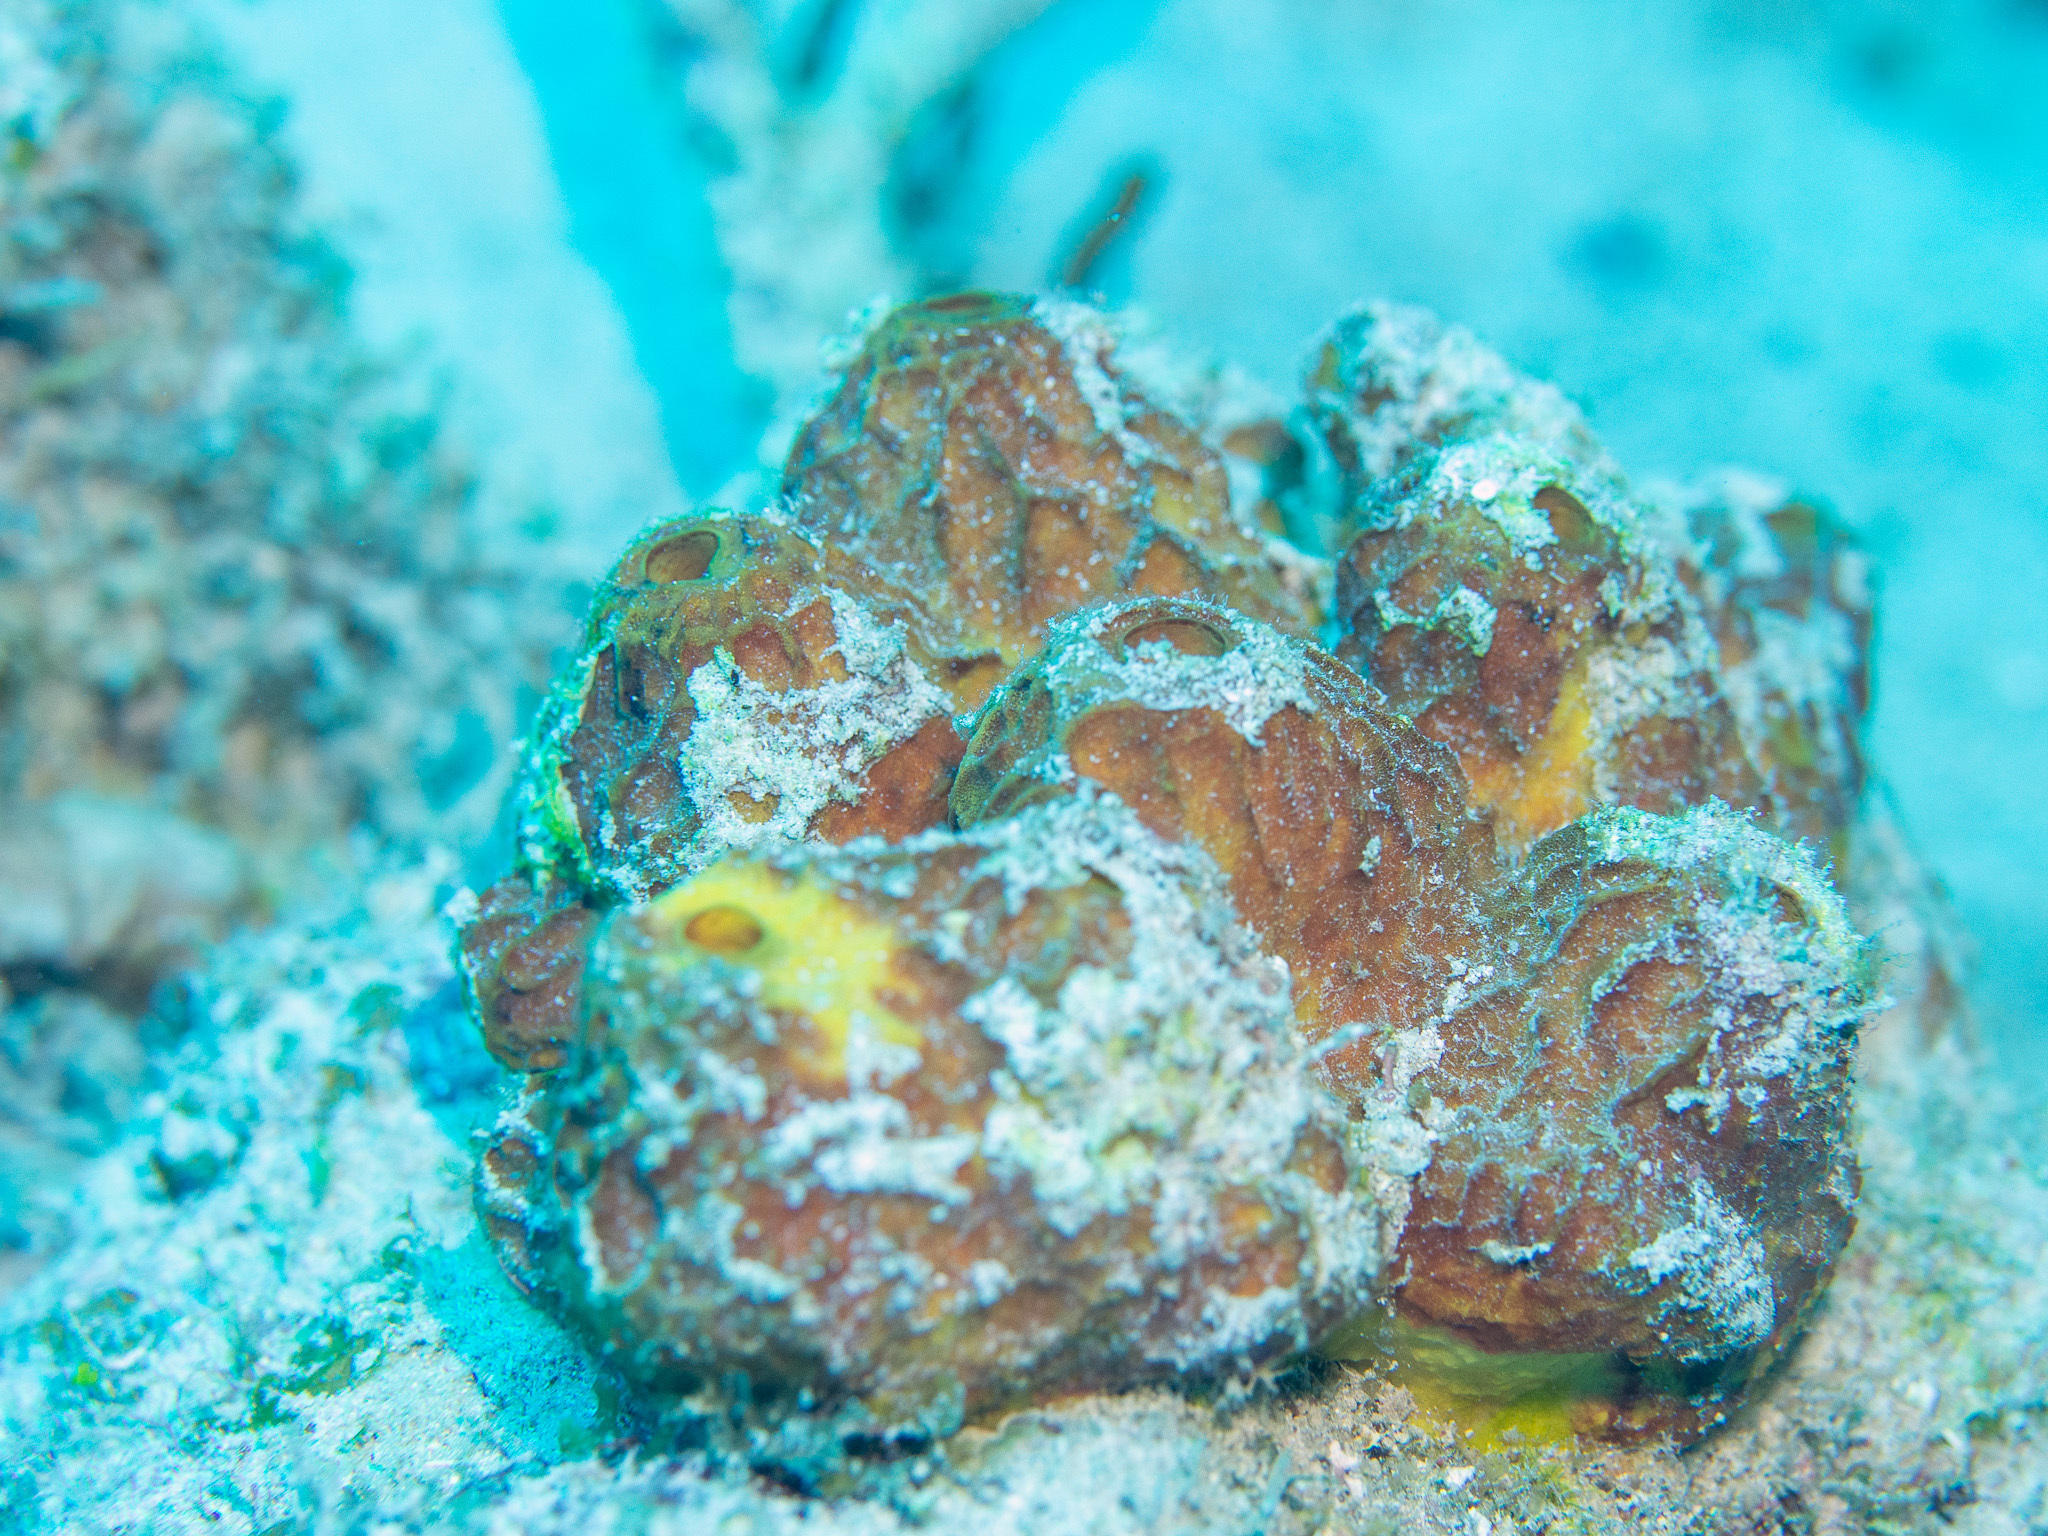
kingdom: Animalia
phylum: Porifera
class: Demospongiae
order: Verongiida
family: Aplysinidae
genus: Verongula
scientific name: Verongula rigida
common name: Pitted sponge
